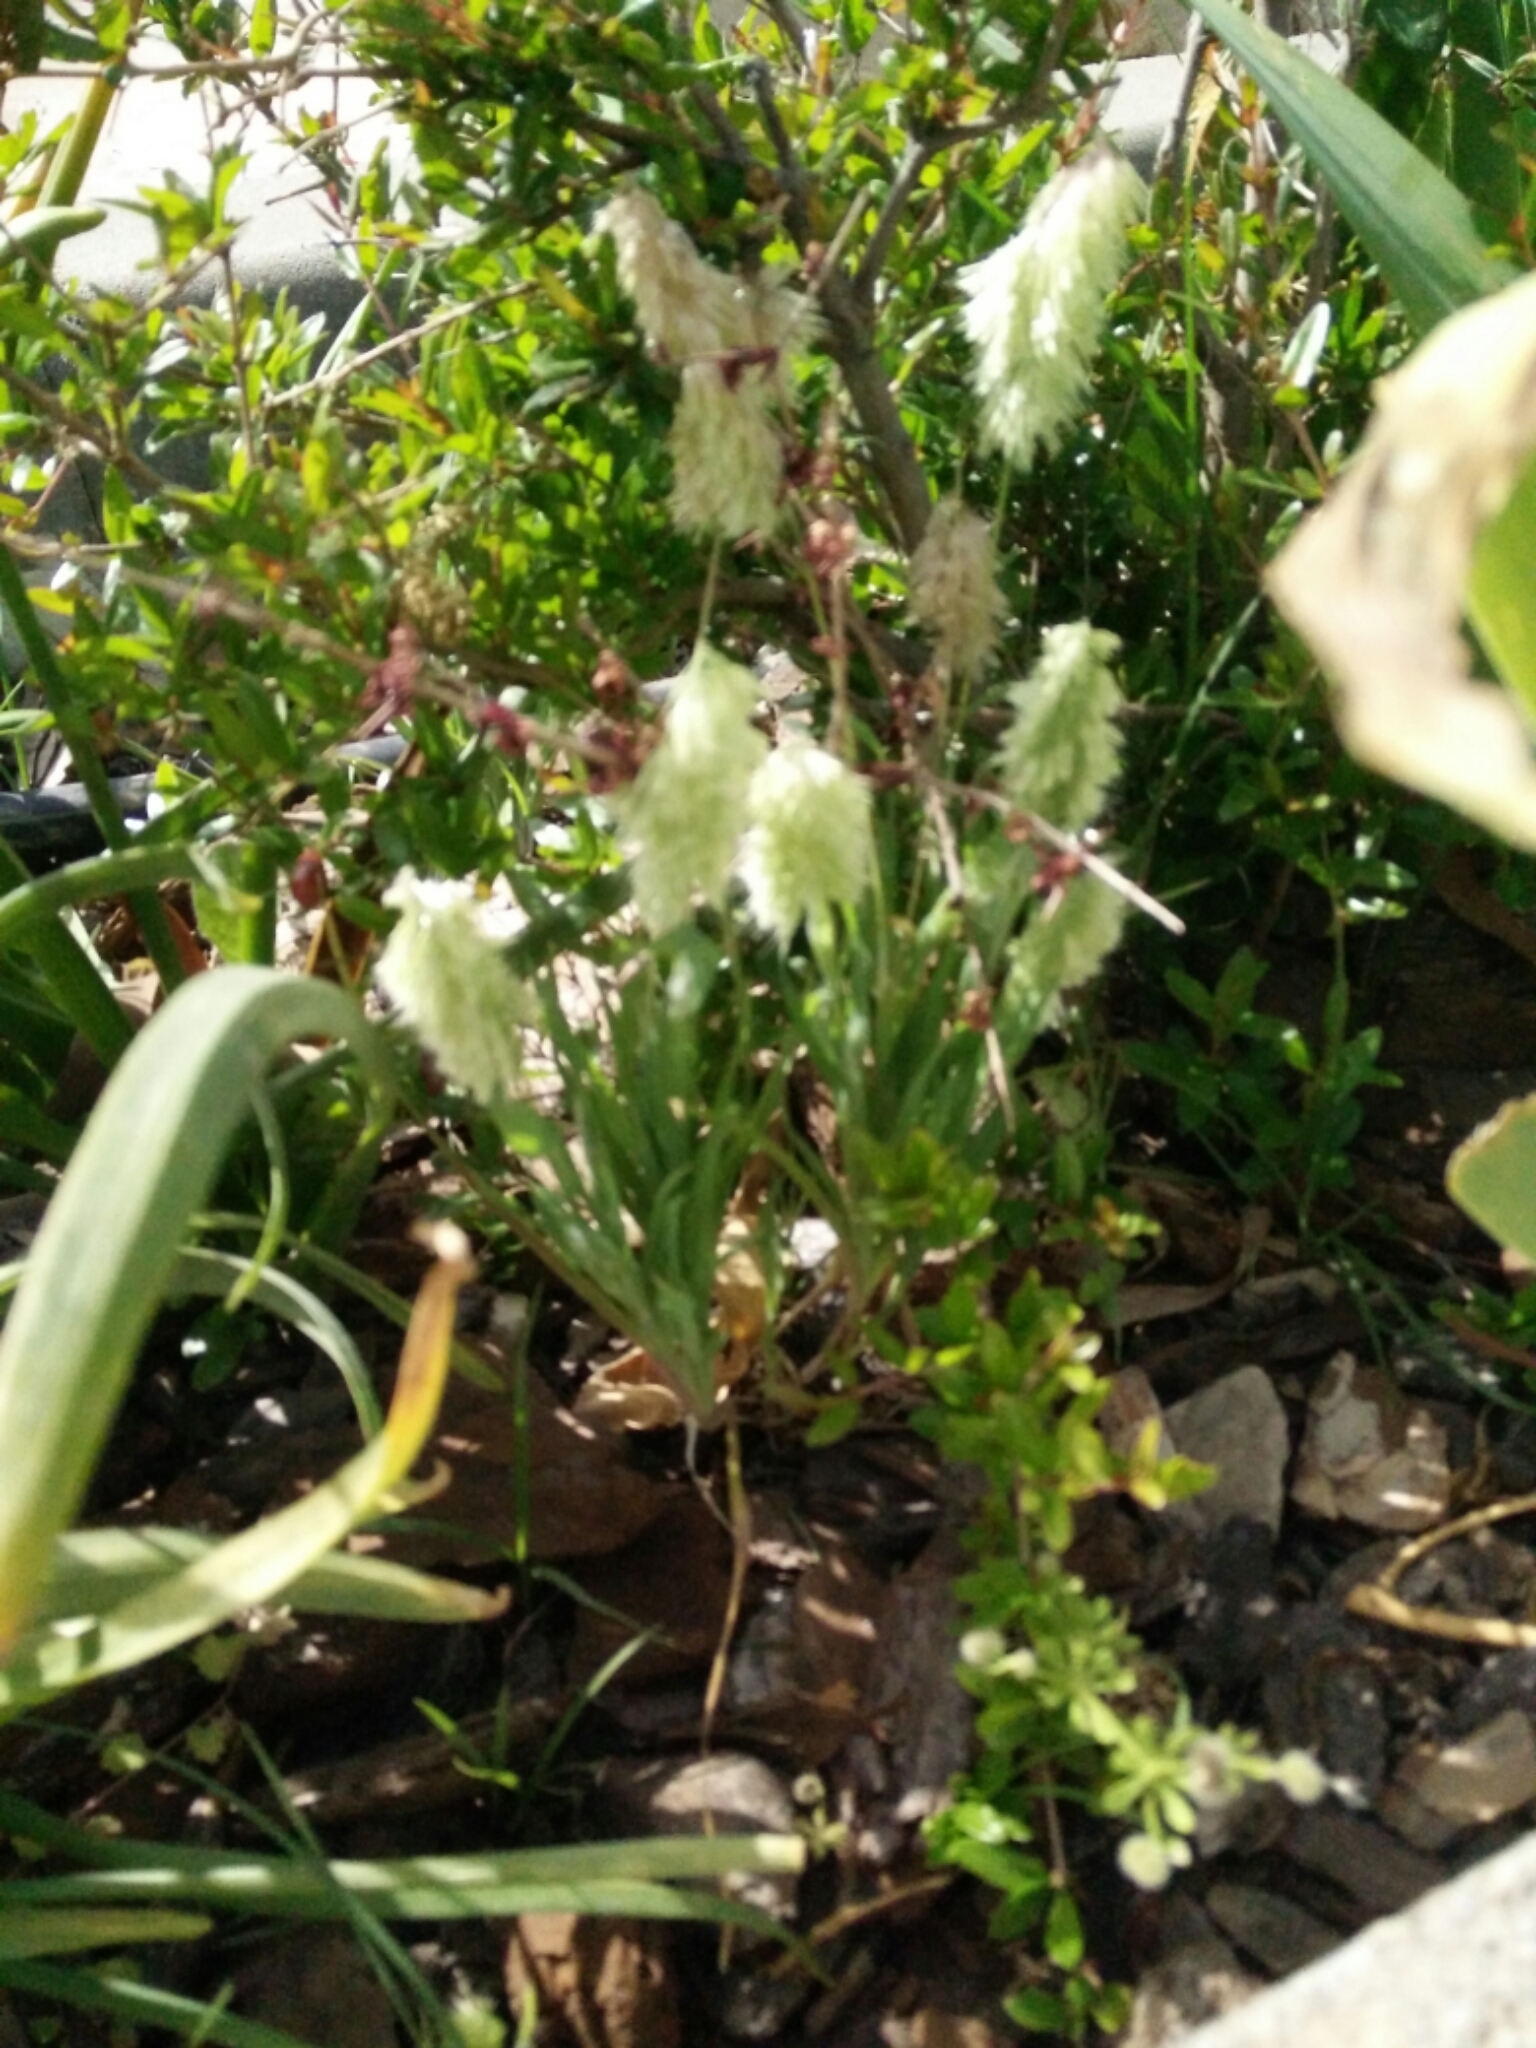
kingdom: Plantae
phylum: Tracheophyta
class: Liliopsida
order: Poales
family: Poaceae
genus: Lamarckia
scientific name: Lamarckia aurea
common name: Golden dog's-tail
